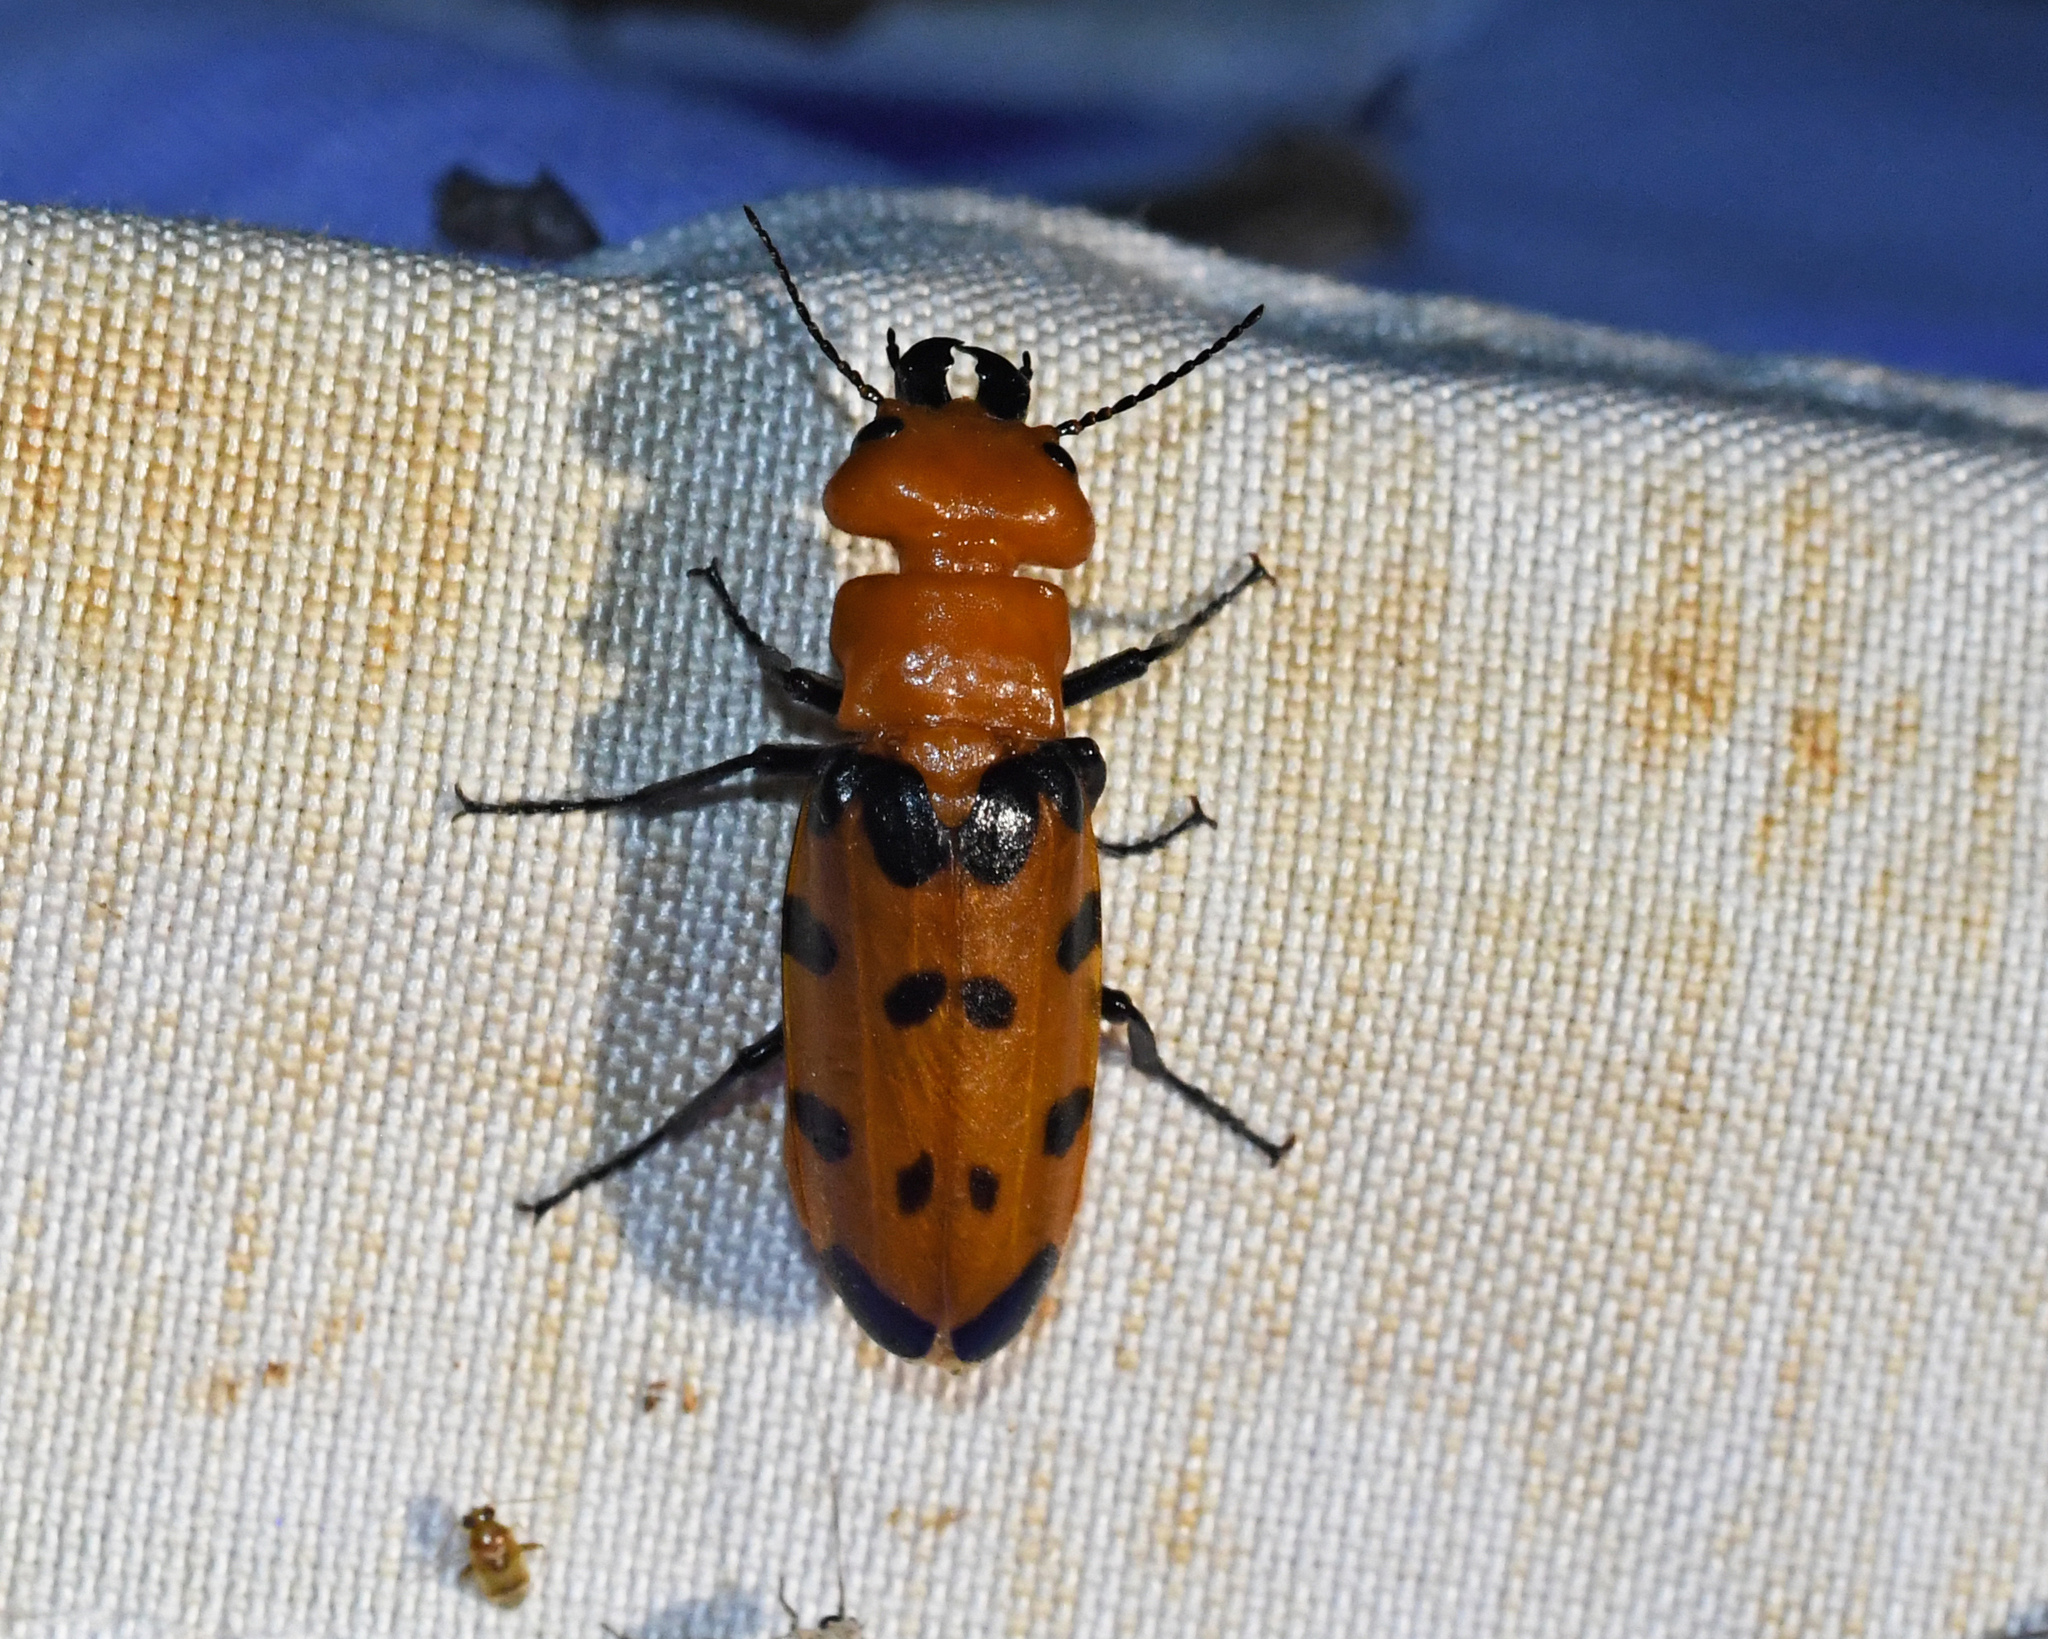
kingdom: Animalia
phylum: Arthropoda
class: Insecta
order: Coleoptera
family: Meloidae
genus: Cissites
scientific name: Cissites maculata
